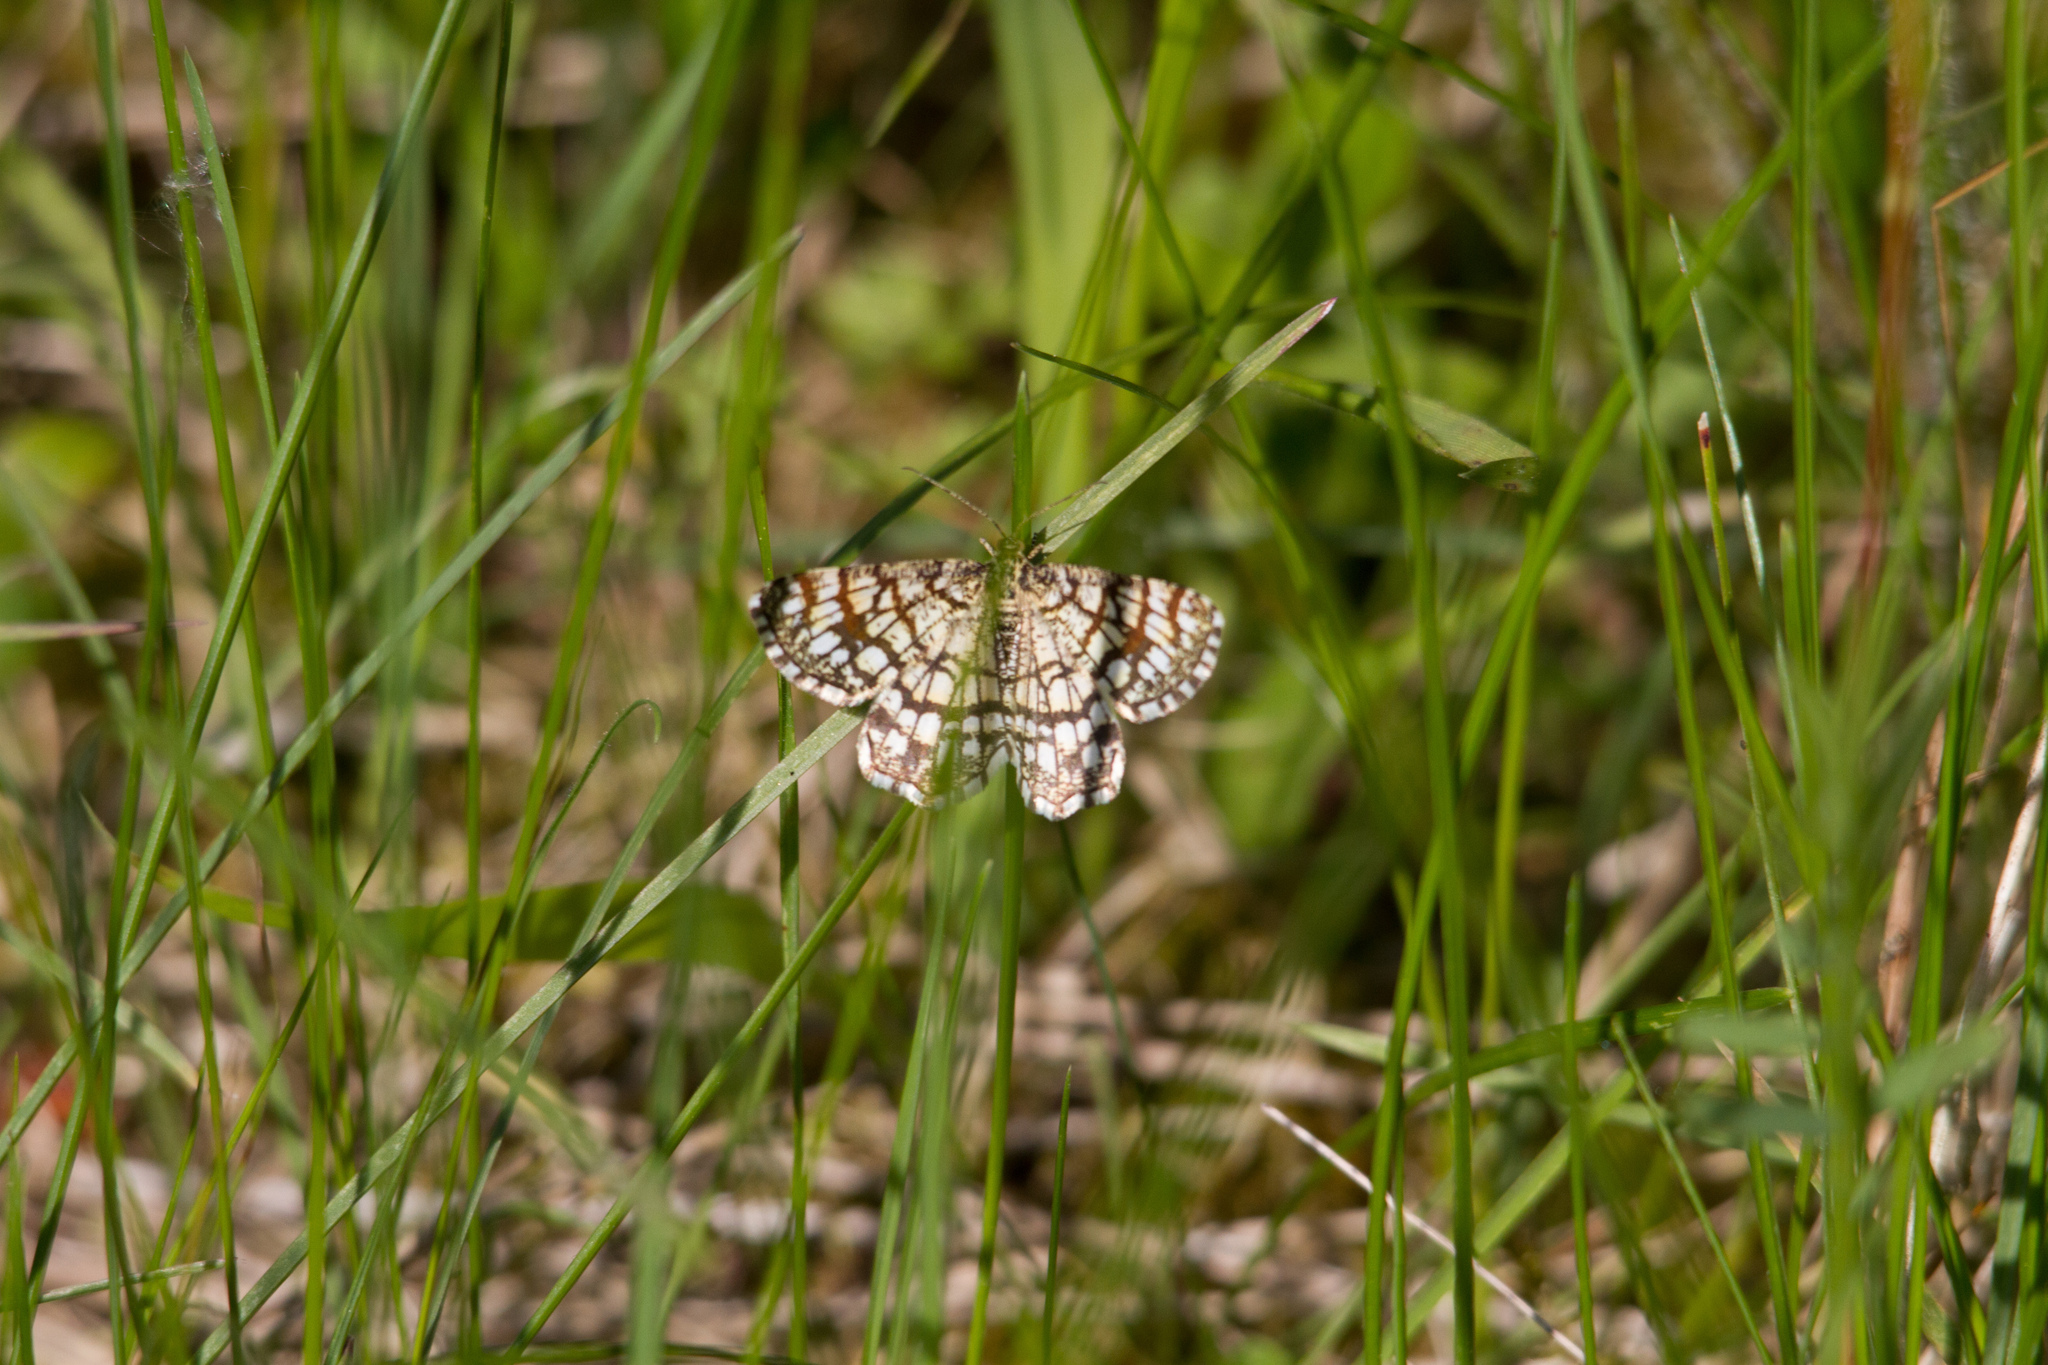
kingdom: Animalia
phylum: Arthropoda
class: Insecta
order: Lepidoptera
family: Geometridae
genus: Chiasmia
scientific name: Chiasmia clathrata
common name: Latticed heath
